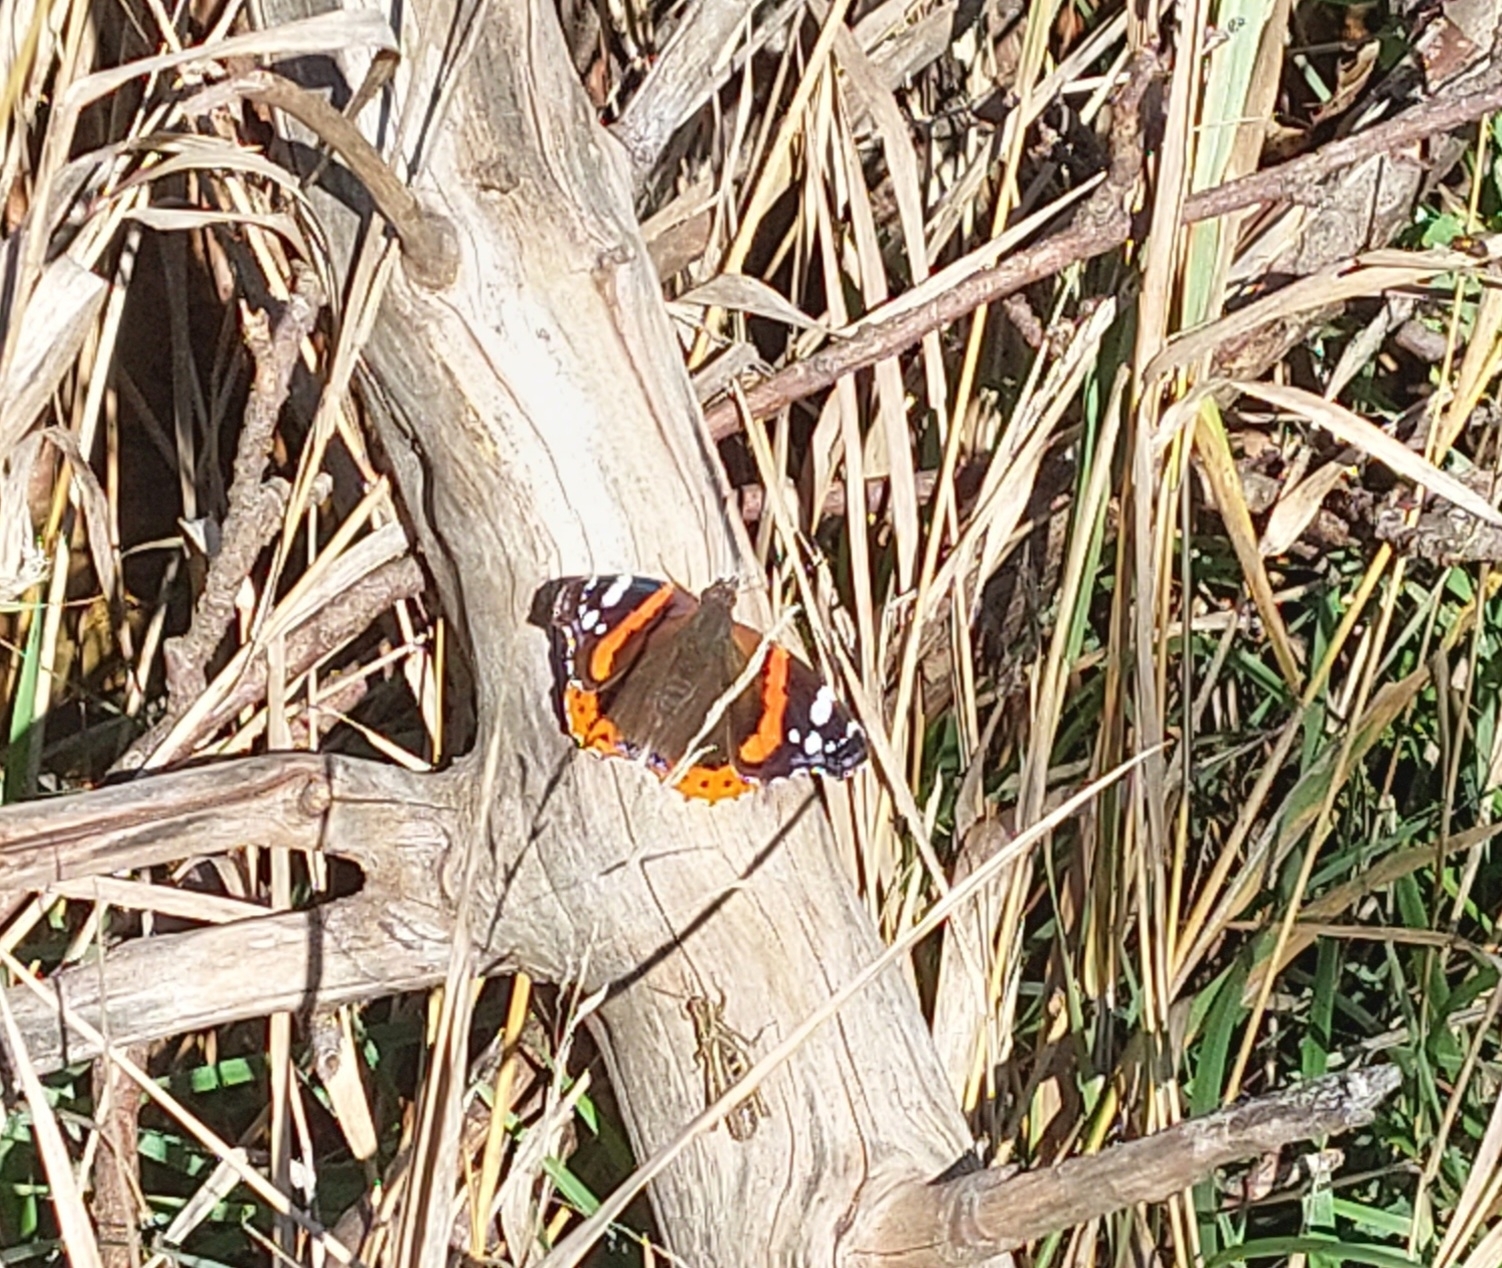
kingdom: Animalia
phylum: Arthropoda
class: Insecta
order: Lepidoptera
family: Nymphalidae
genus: Vanessa
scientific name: Vanessa atalanta
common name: Red admiral
